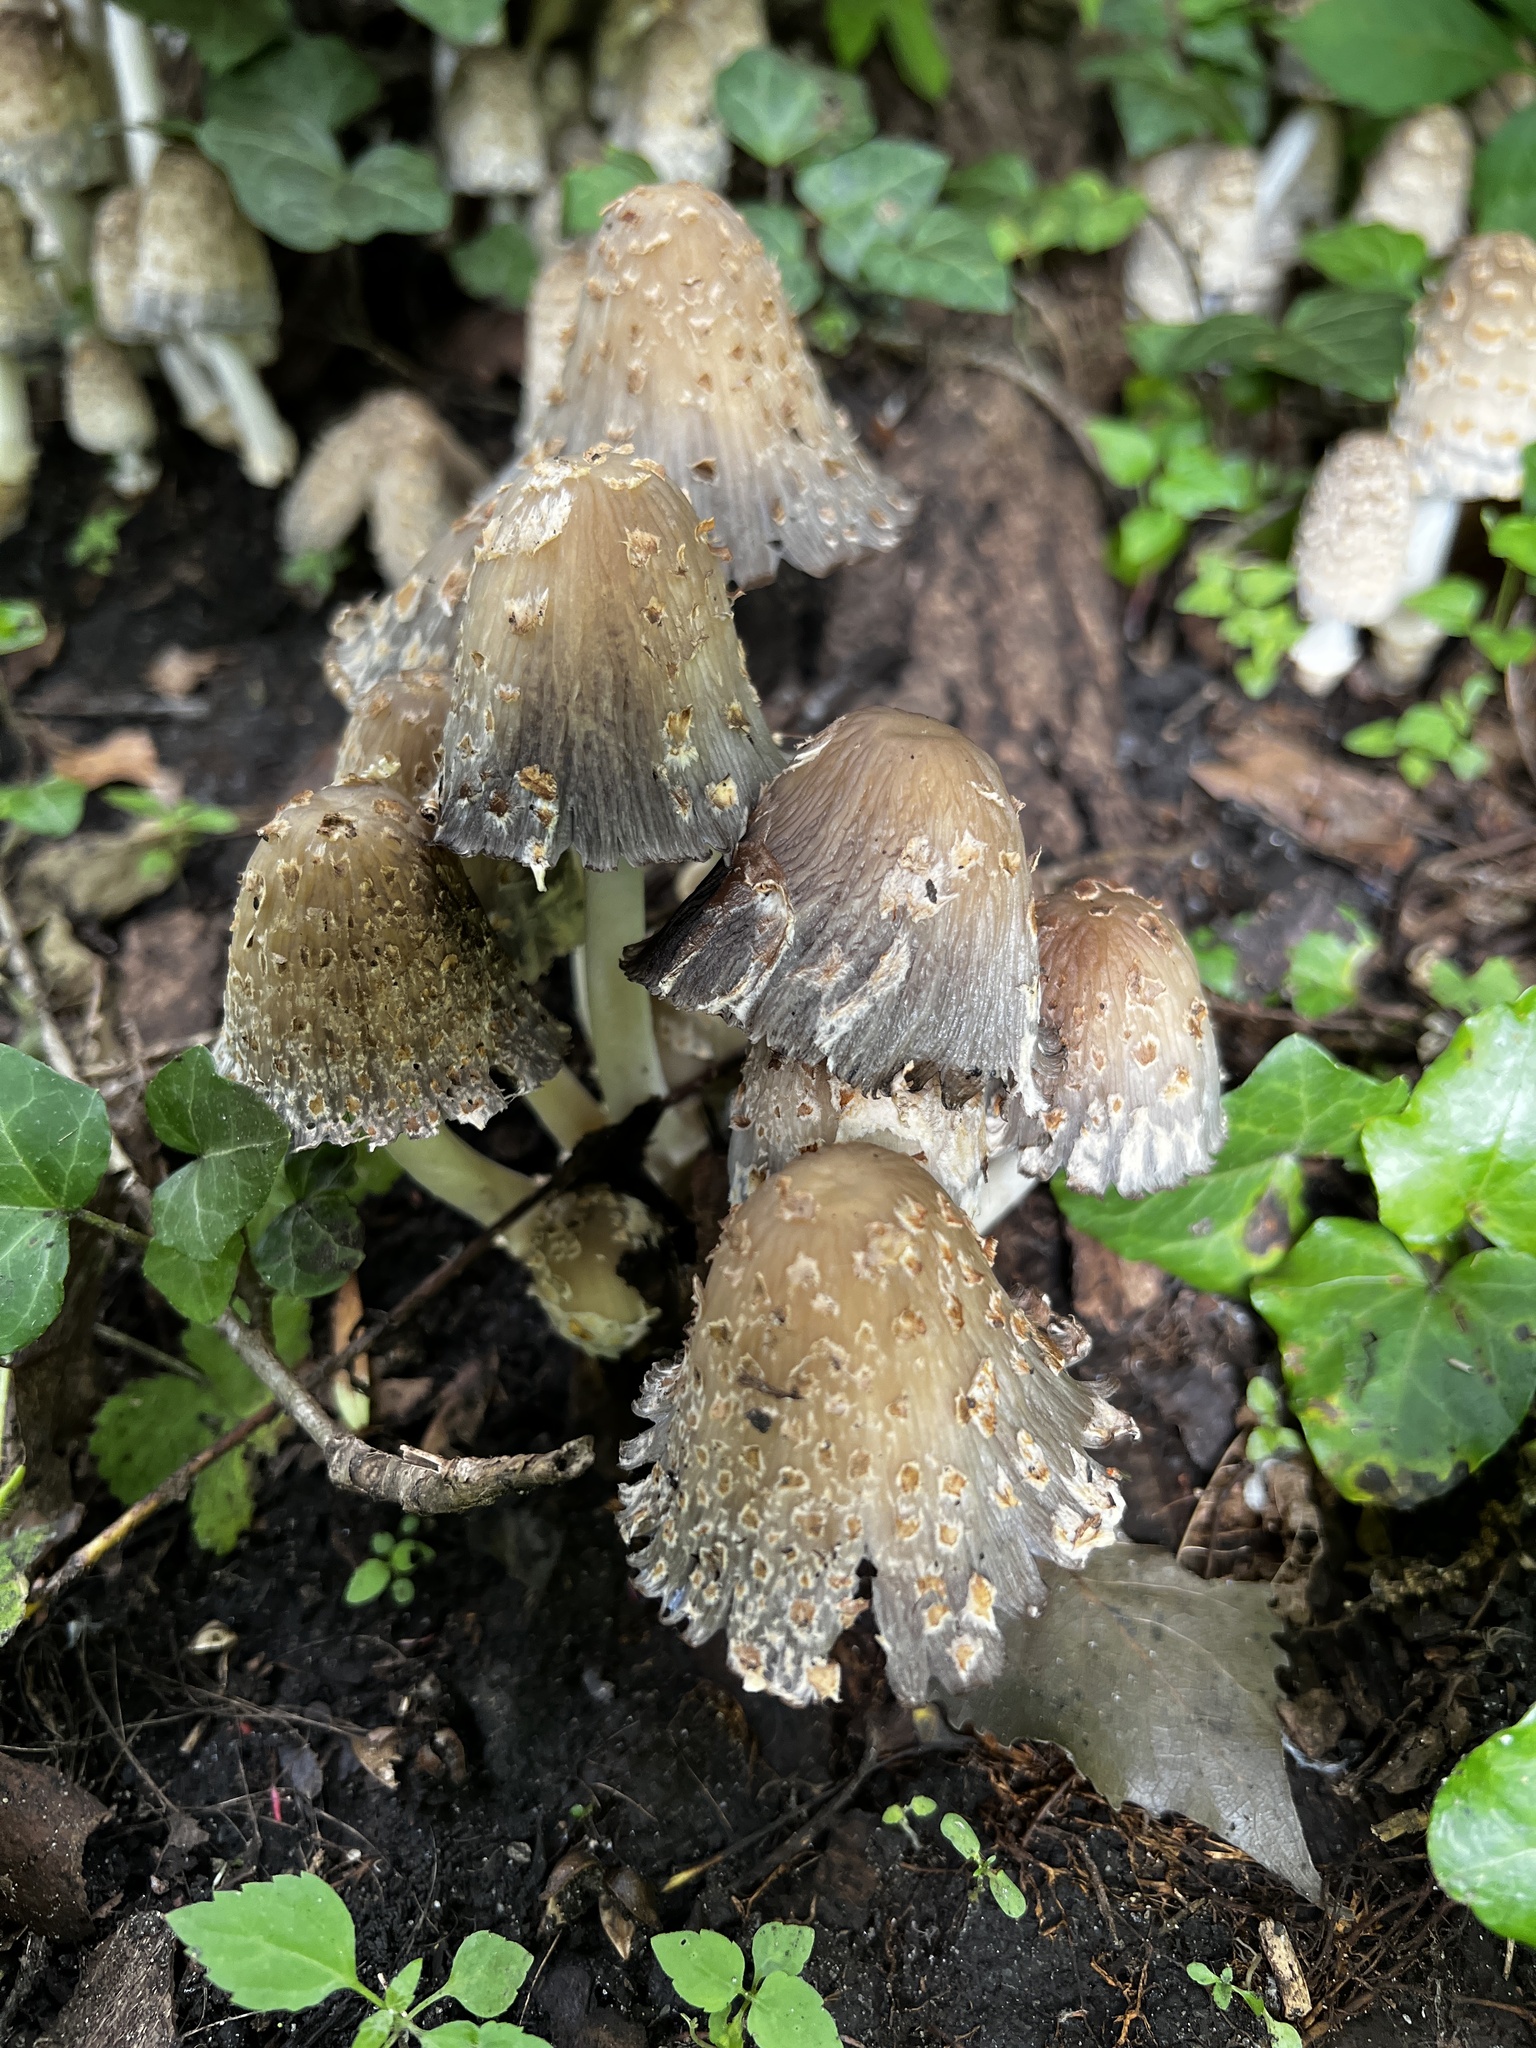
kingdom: Fungi
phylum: Basidiomycota
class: Agaricomycetes
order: Agaricales
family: Psathyrellaceae
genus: Coprinopsis
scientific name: Coprinopsis variegata
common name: Scaly ink cap
